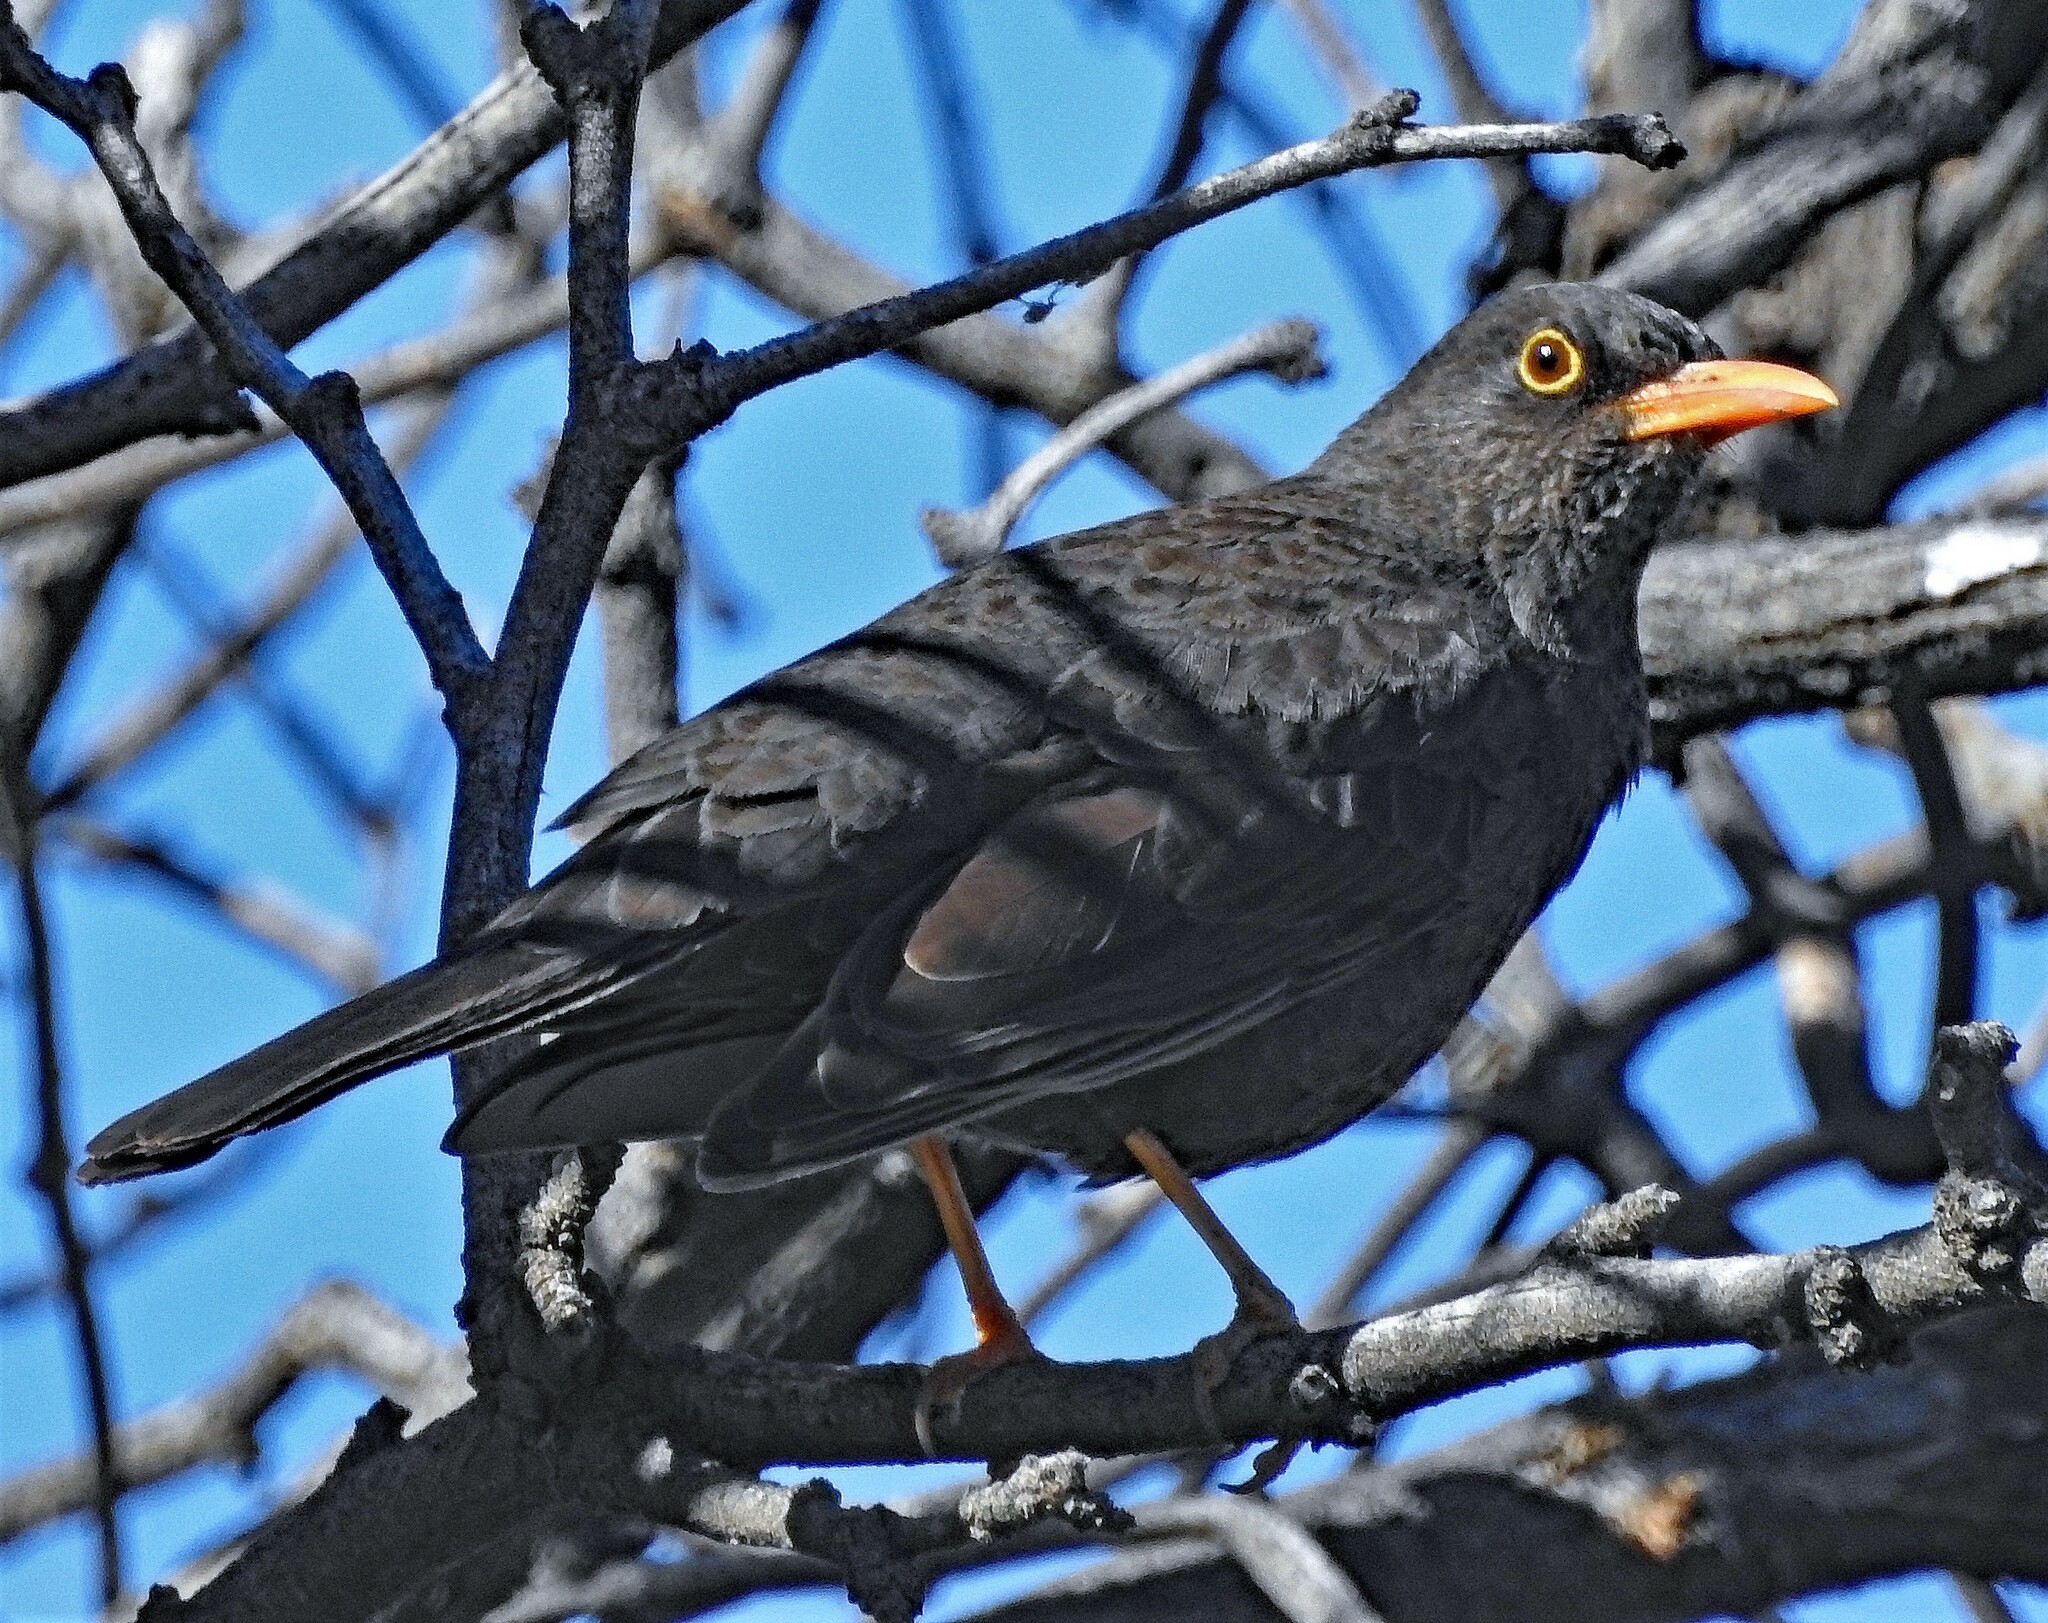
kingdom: Animalia
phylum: Chordata
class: Aves
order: Passeriformes
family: Turdidae
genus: Turdus
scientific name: Turdus chiguanco
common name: Chiguanco thrush
